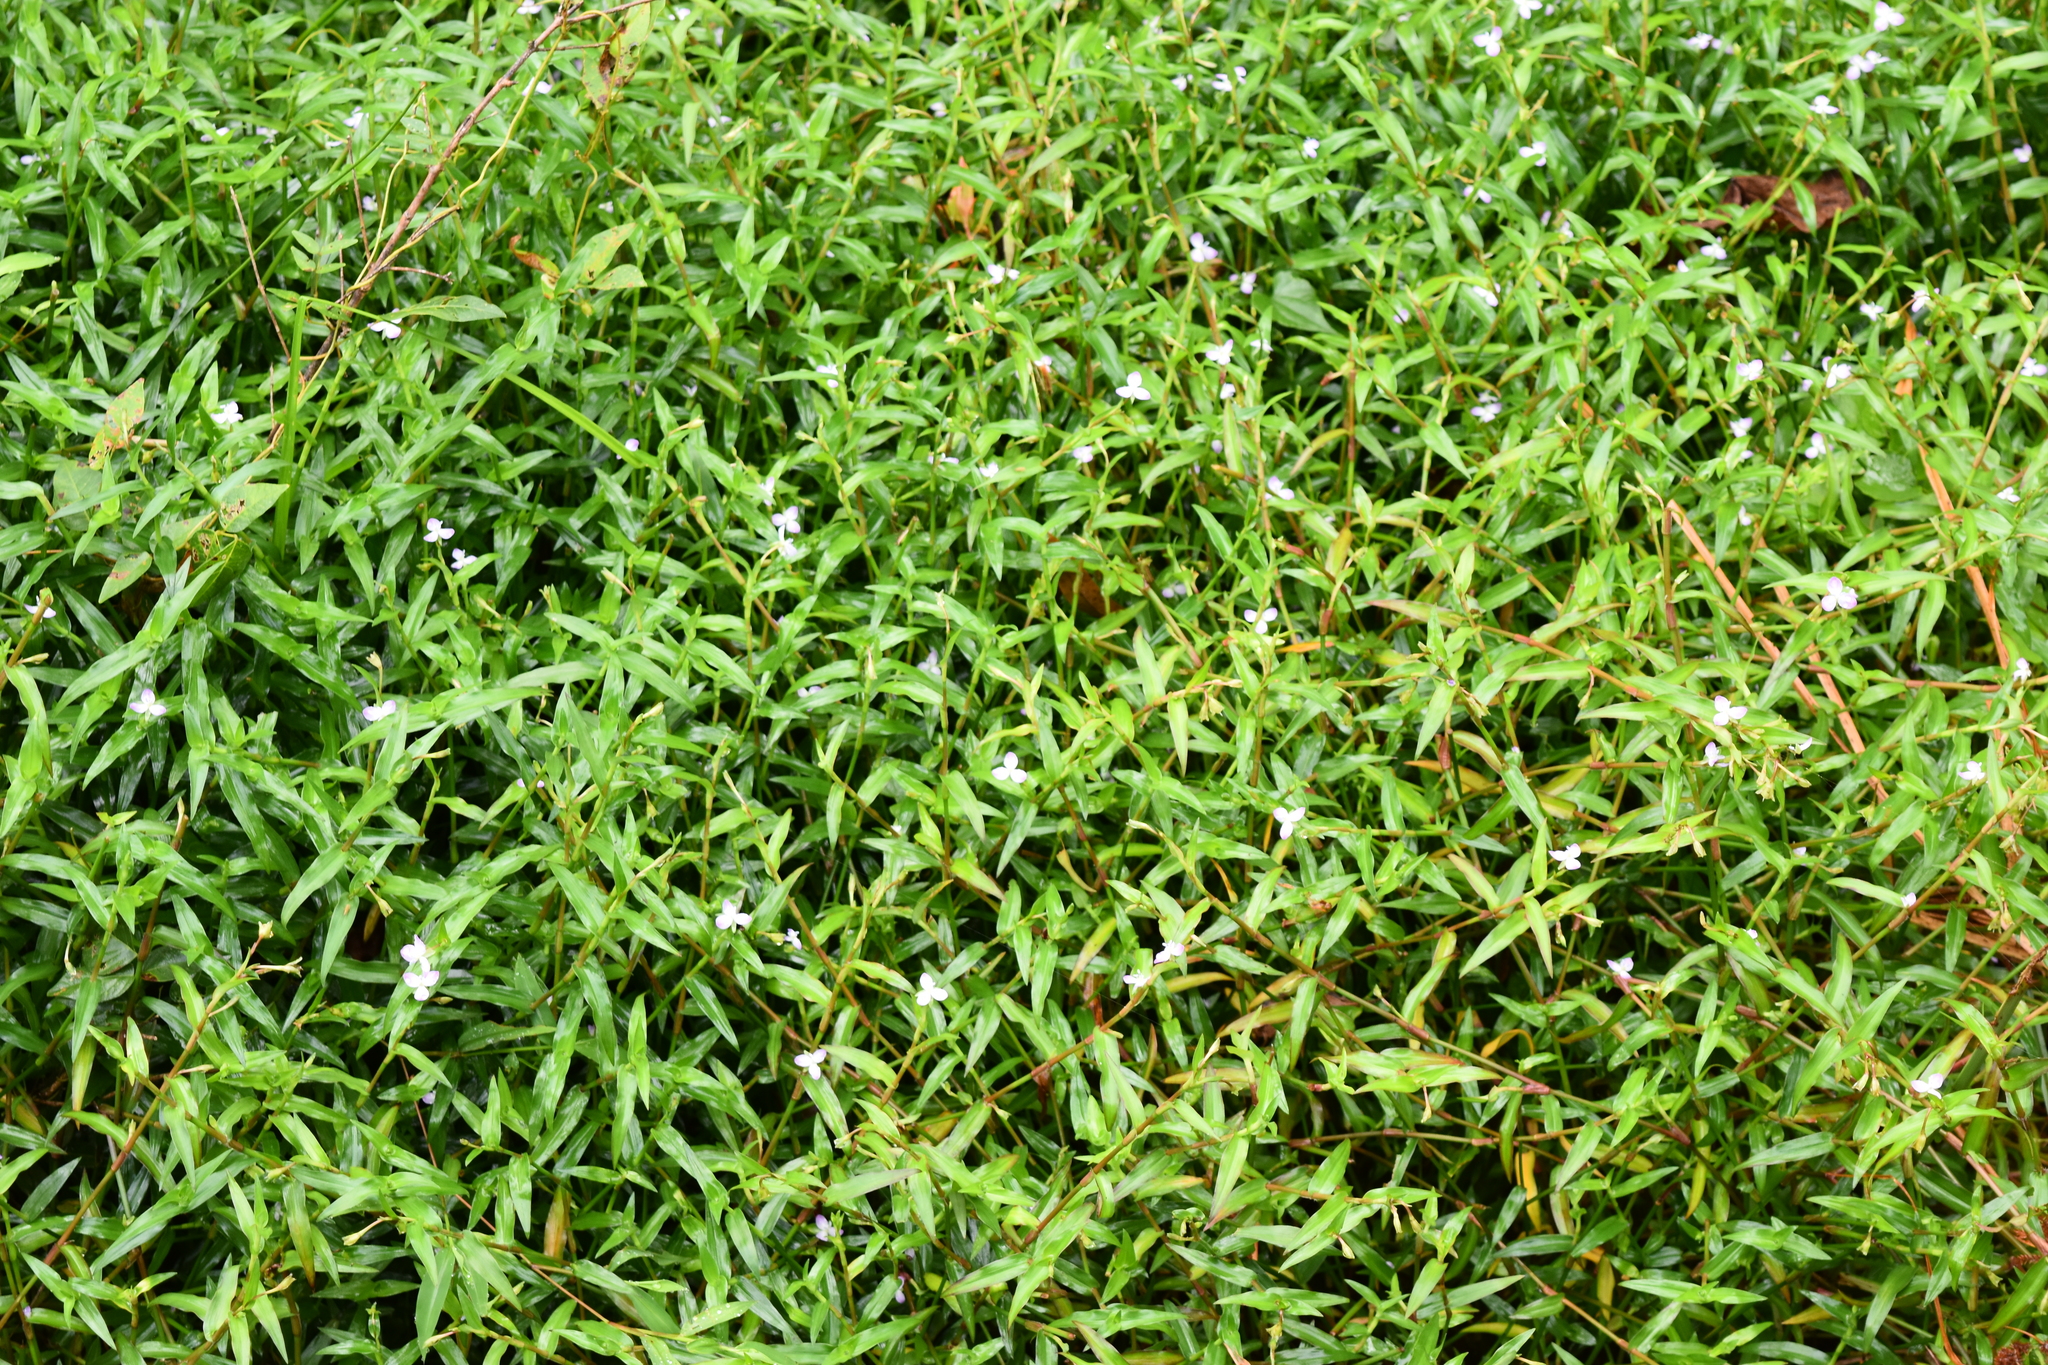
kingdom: Plantae
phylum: Tracheophyta
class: Liliopsida
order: Commelinales
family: Commelinaceae
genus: Murdannia
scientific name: Murdannia keisak
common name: Wartremoving herb
